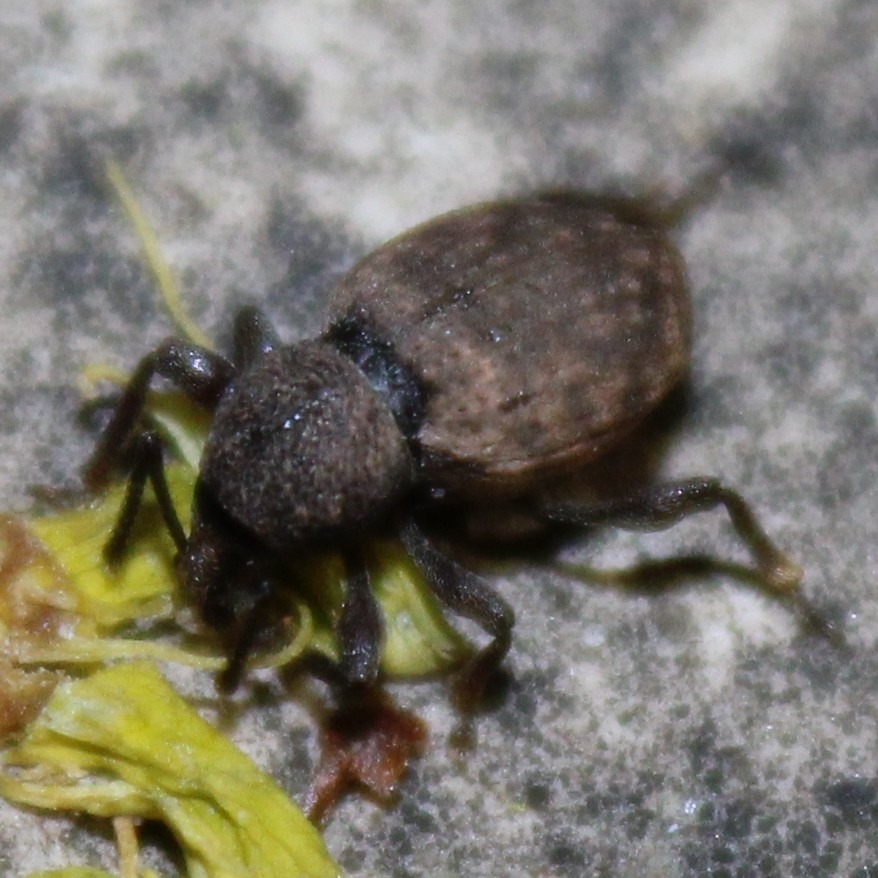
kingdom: Animalia
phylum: Arthropoda
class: Insecta
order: Coleoptera
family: Curculionidae
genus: Otiorhynchus
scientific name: Otiorhynchus raucus
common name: Weevil
